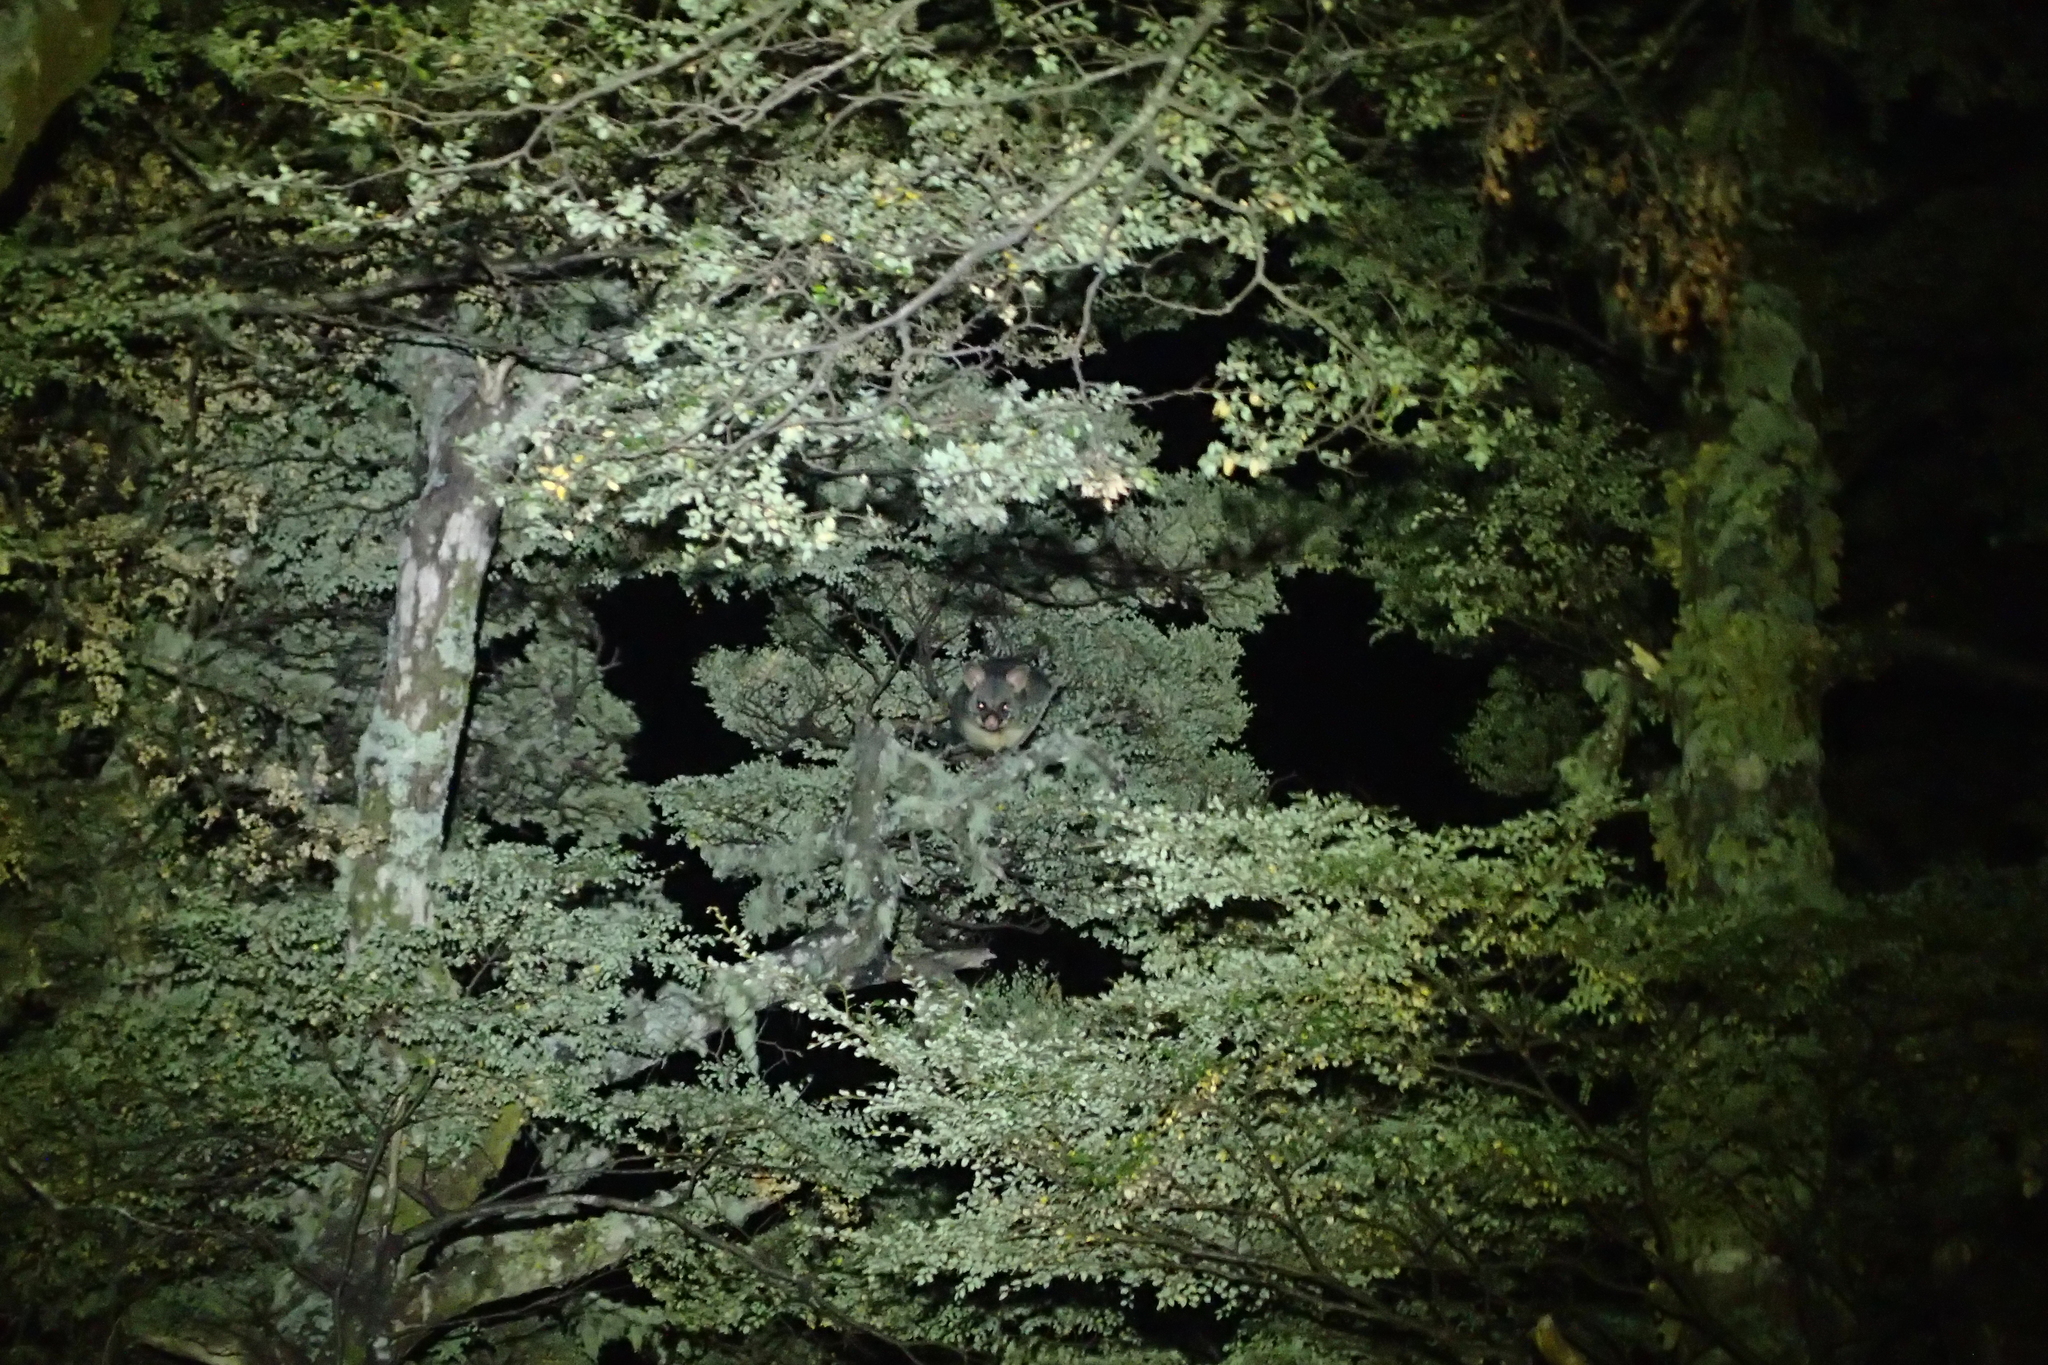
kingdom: Animalia
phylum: Chordata
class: Mammalia
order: Diprotodontia
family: Phalangeridae
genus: Trichosurus
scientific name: Trichosurus vulpecula
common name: Common brushtail
